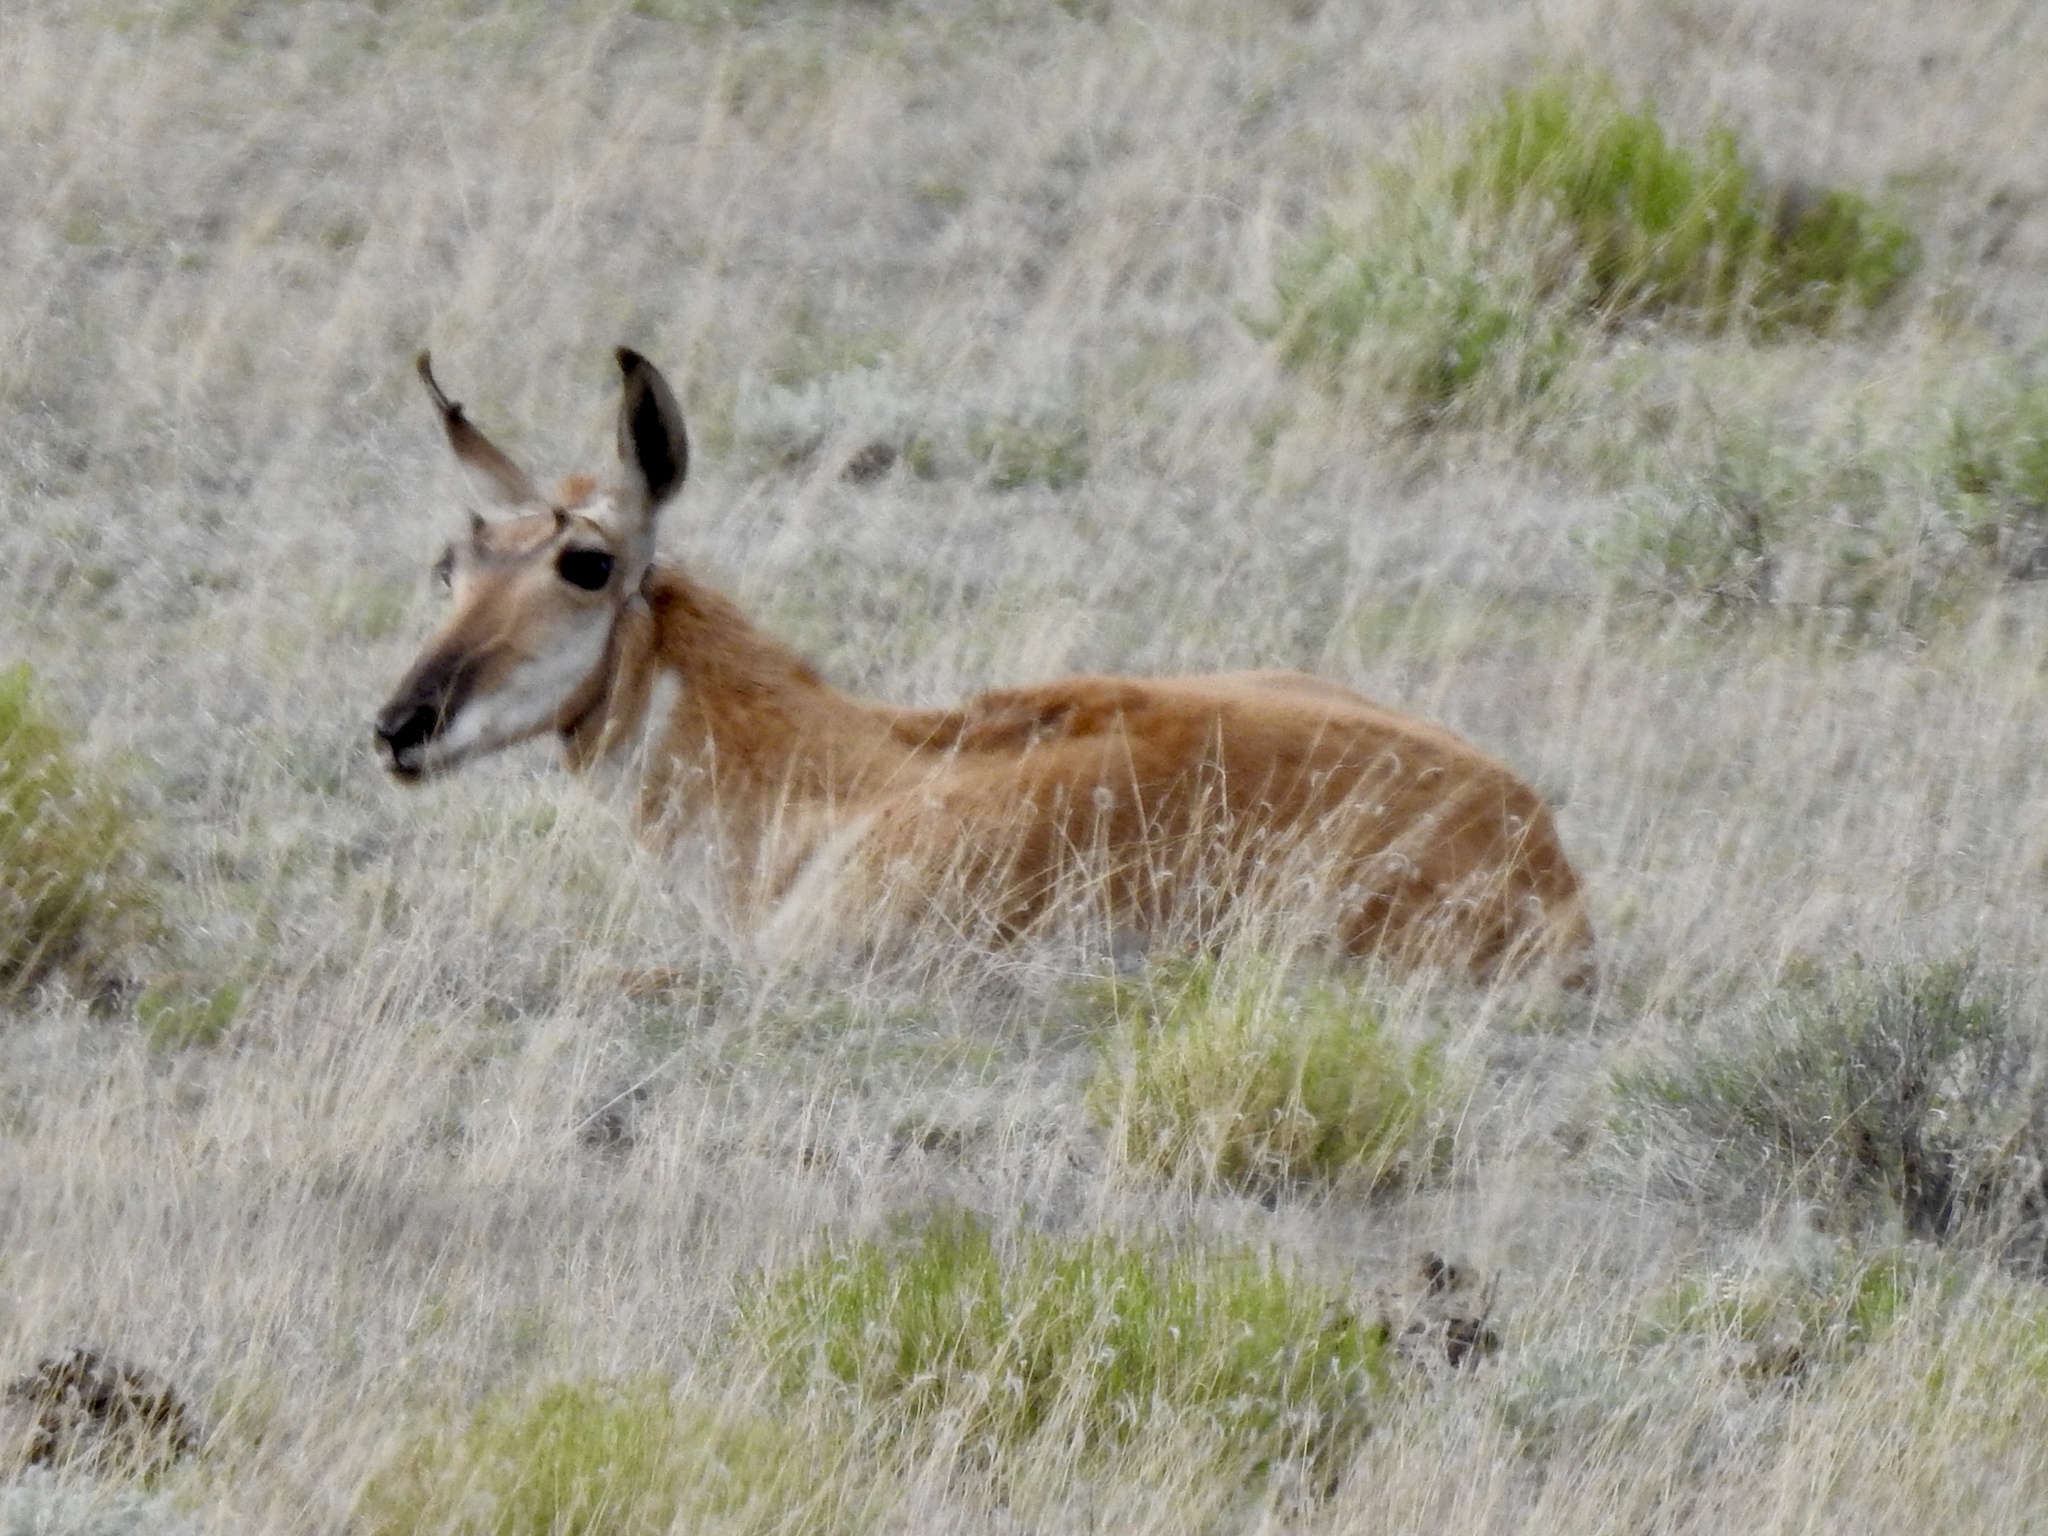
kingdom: Animalia
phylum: Chordata
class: Mammalia
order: Artiodactyla
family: Antilocapridae
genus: Antilocapra
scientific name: Antilocapra americana
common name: Pronghorn
